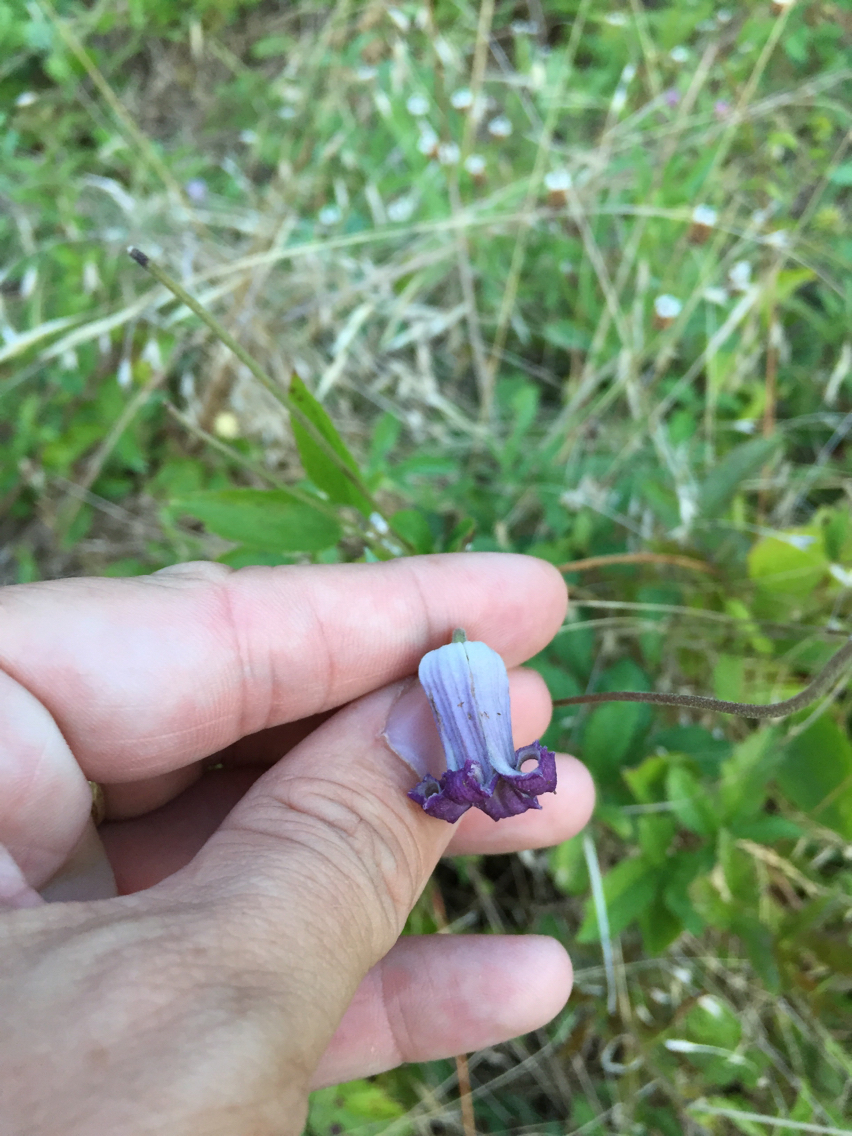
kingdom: Plantae
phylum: Tracheophyta
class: Magnoliopsida
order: Ranunculales
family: Ranunculaceae
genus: Clematis
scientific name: Clematis pitcheri
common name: Bellflower clematis
